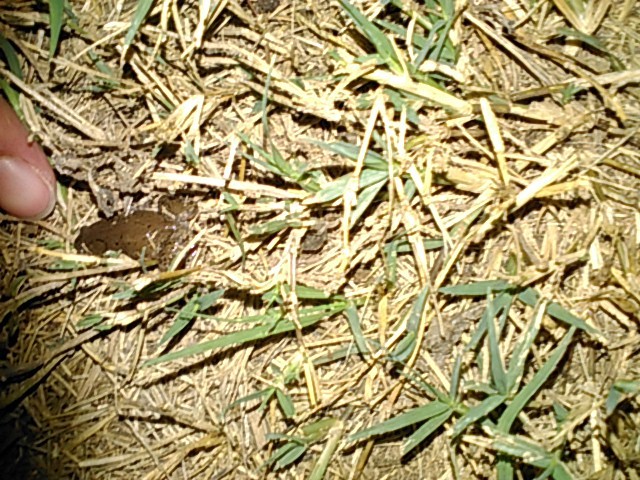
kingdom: Animalia
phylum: Chordata
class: Amphibia
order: Anura
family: Microhylidae
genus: Gastrophryne
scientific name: Gastrophryne olivacea
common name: Great plains narrow-mouthed toad
